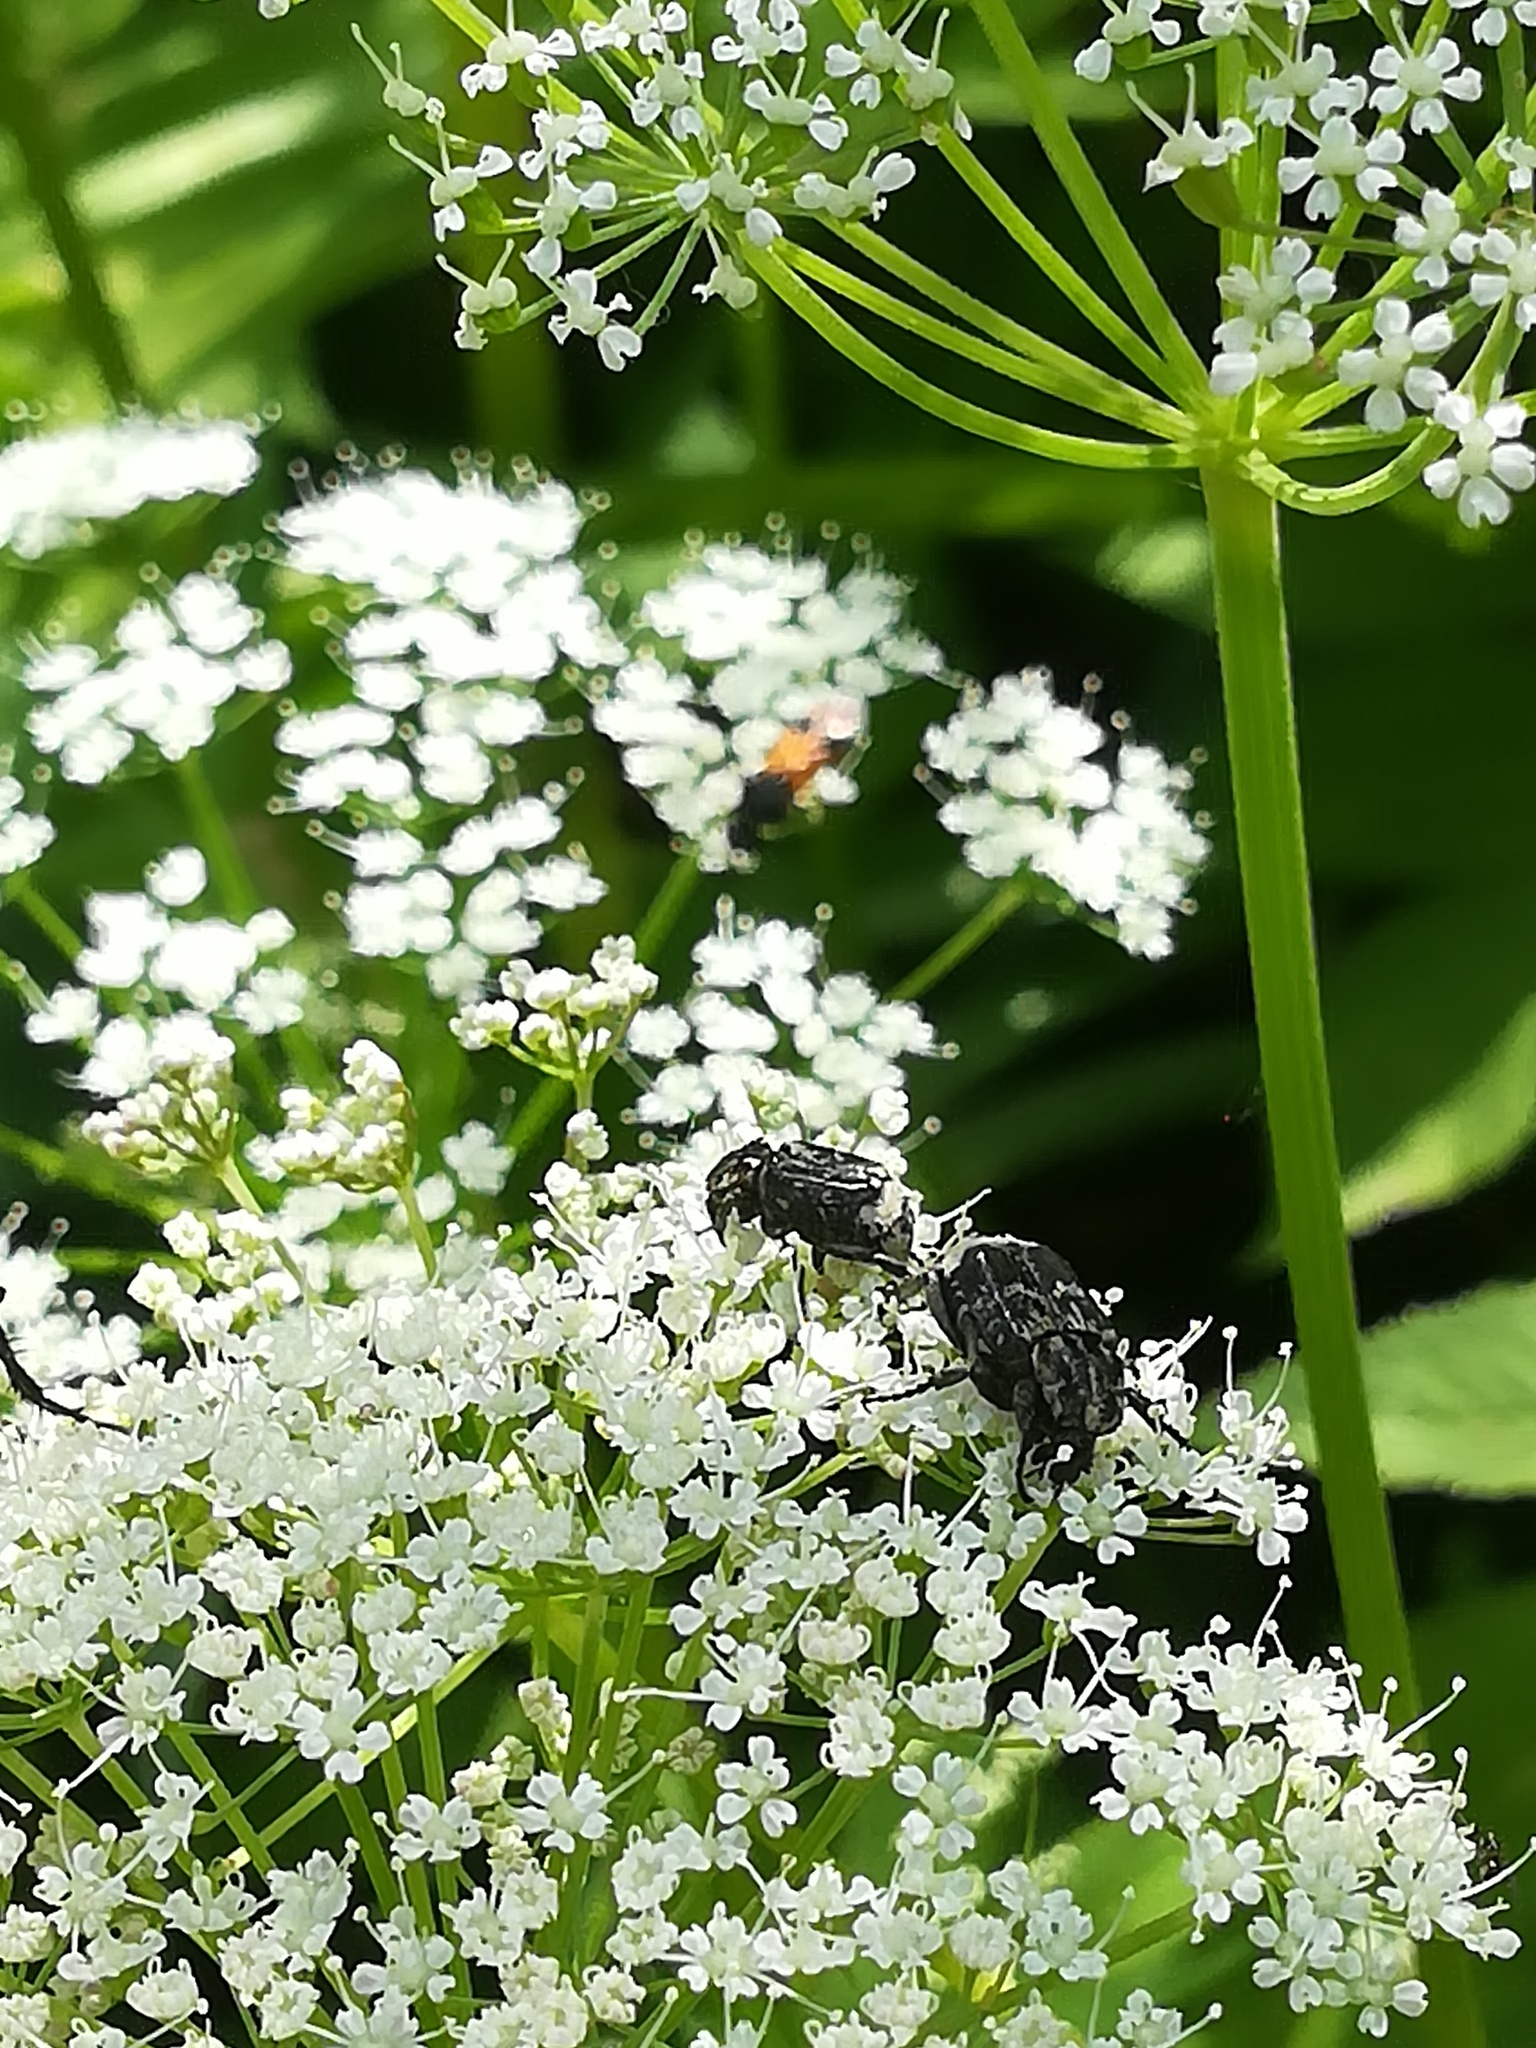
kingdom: Animalia
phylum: Arthropoda
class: Insecta
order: Coleoptera
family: Scarabaeidae
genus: Valgus
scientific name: Valgus hemipterus
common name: Bug flower chafer
